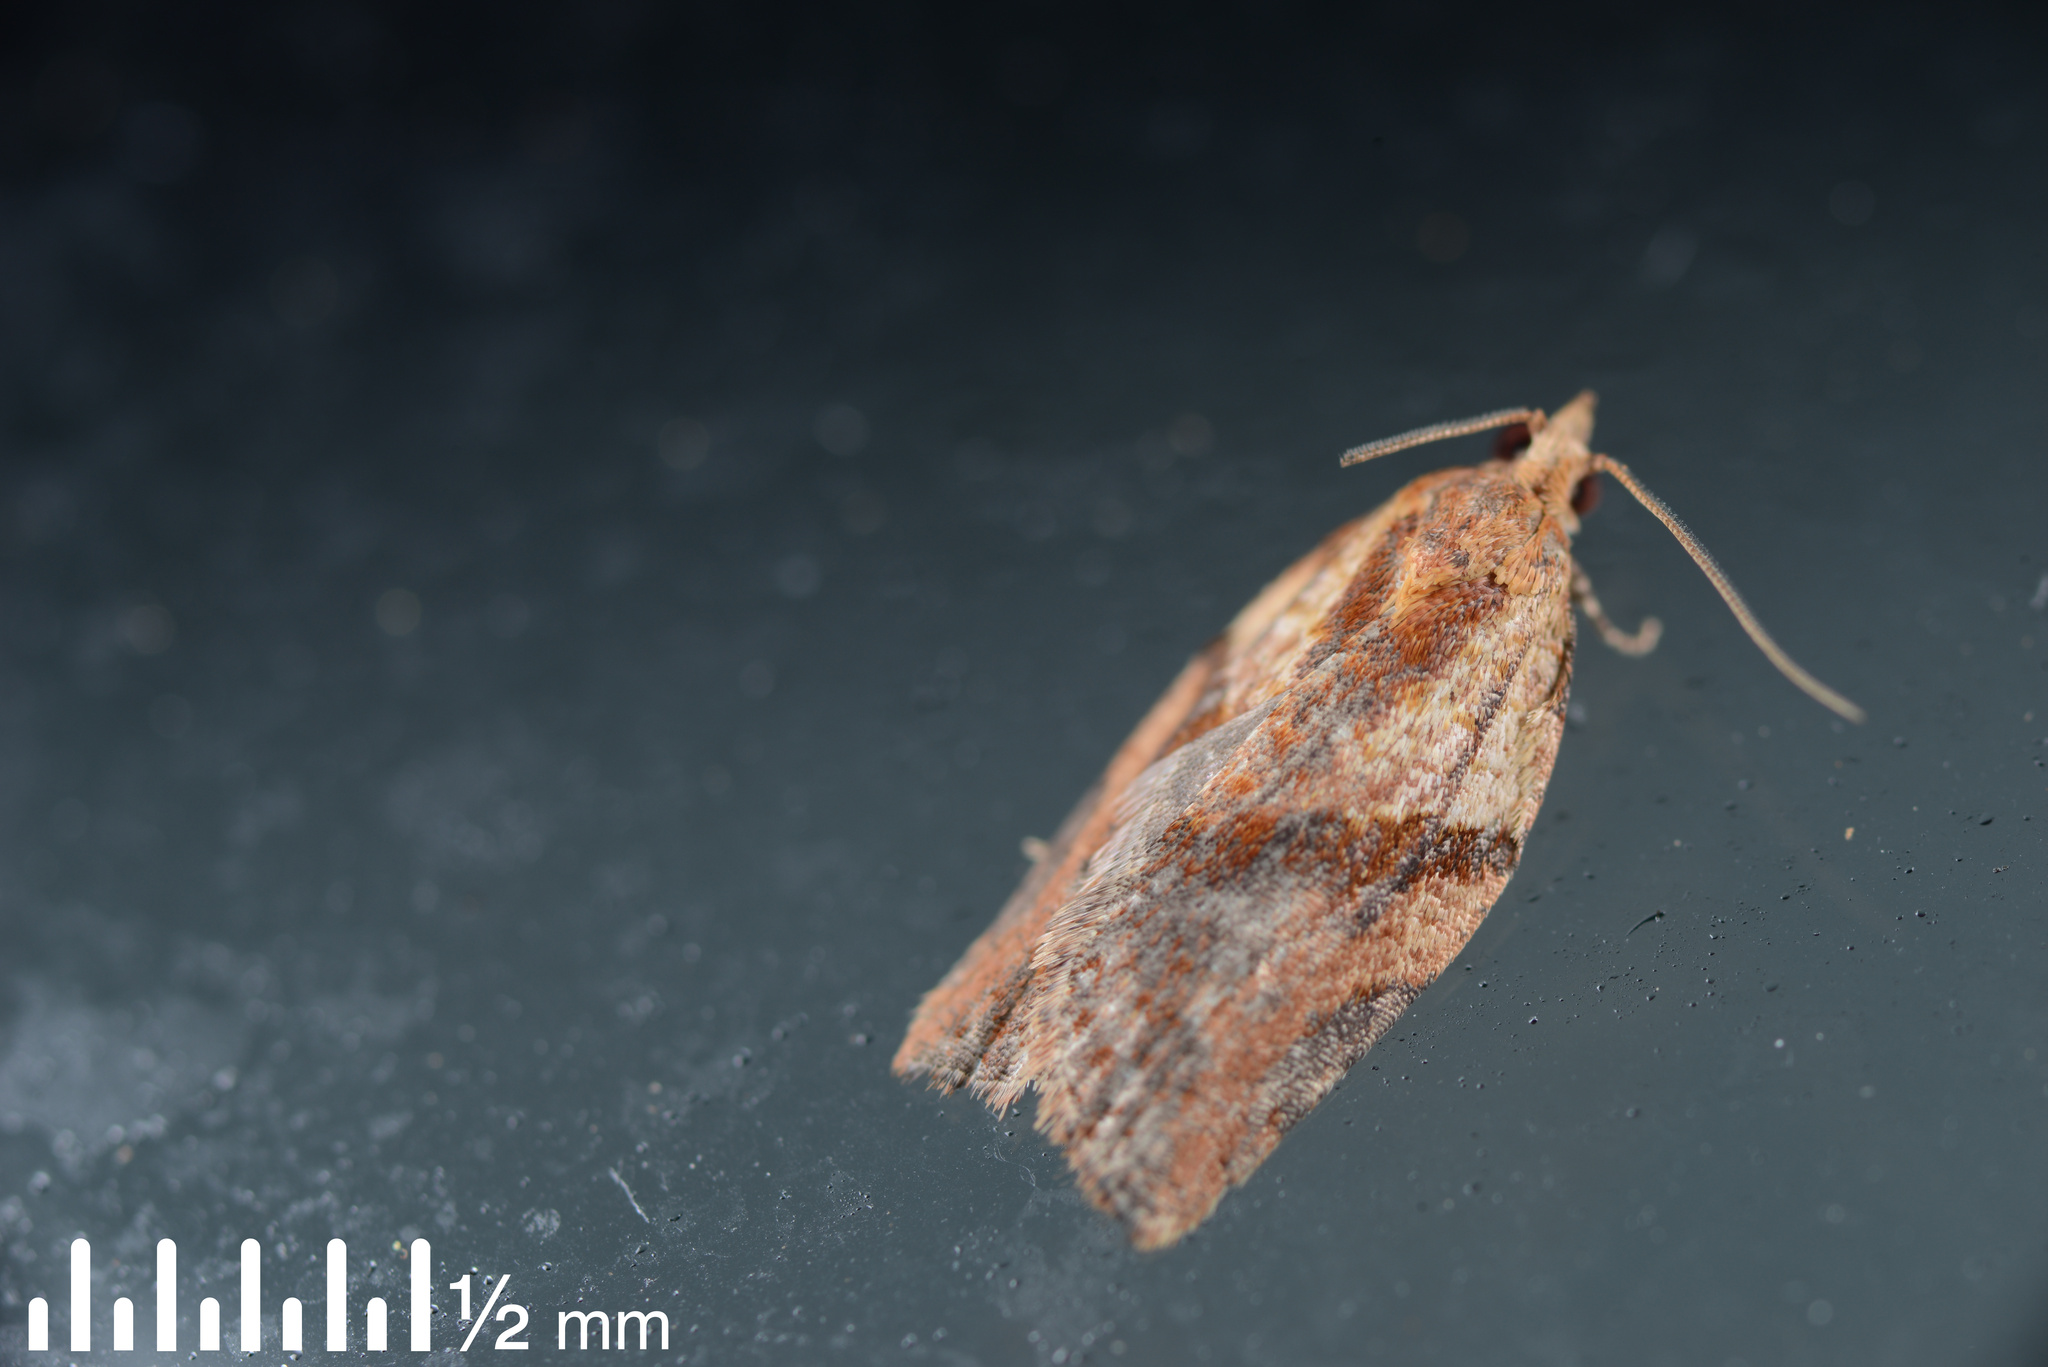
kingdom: Animalia
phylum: Arthropoda
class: Insecta
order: Lepidoptera
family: Tortricidae
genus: Epiphyas
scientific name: Epiphyas postvittana
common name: Light brown apple moth
